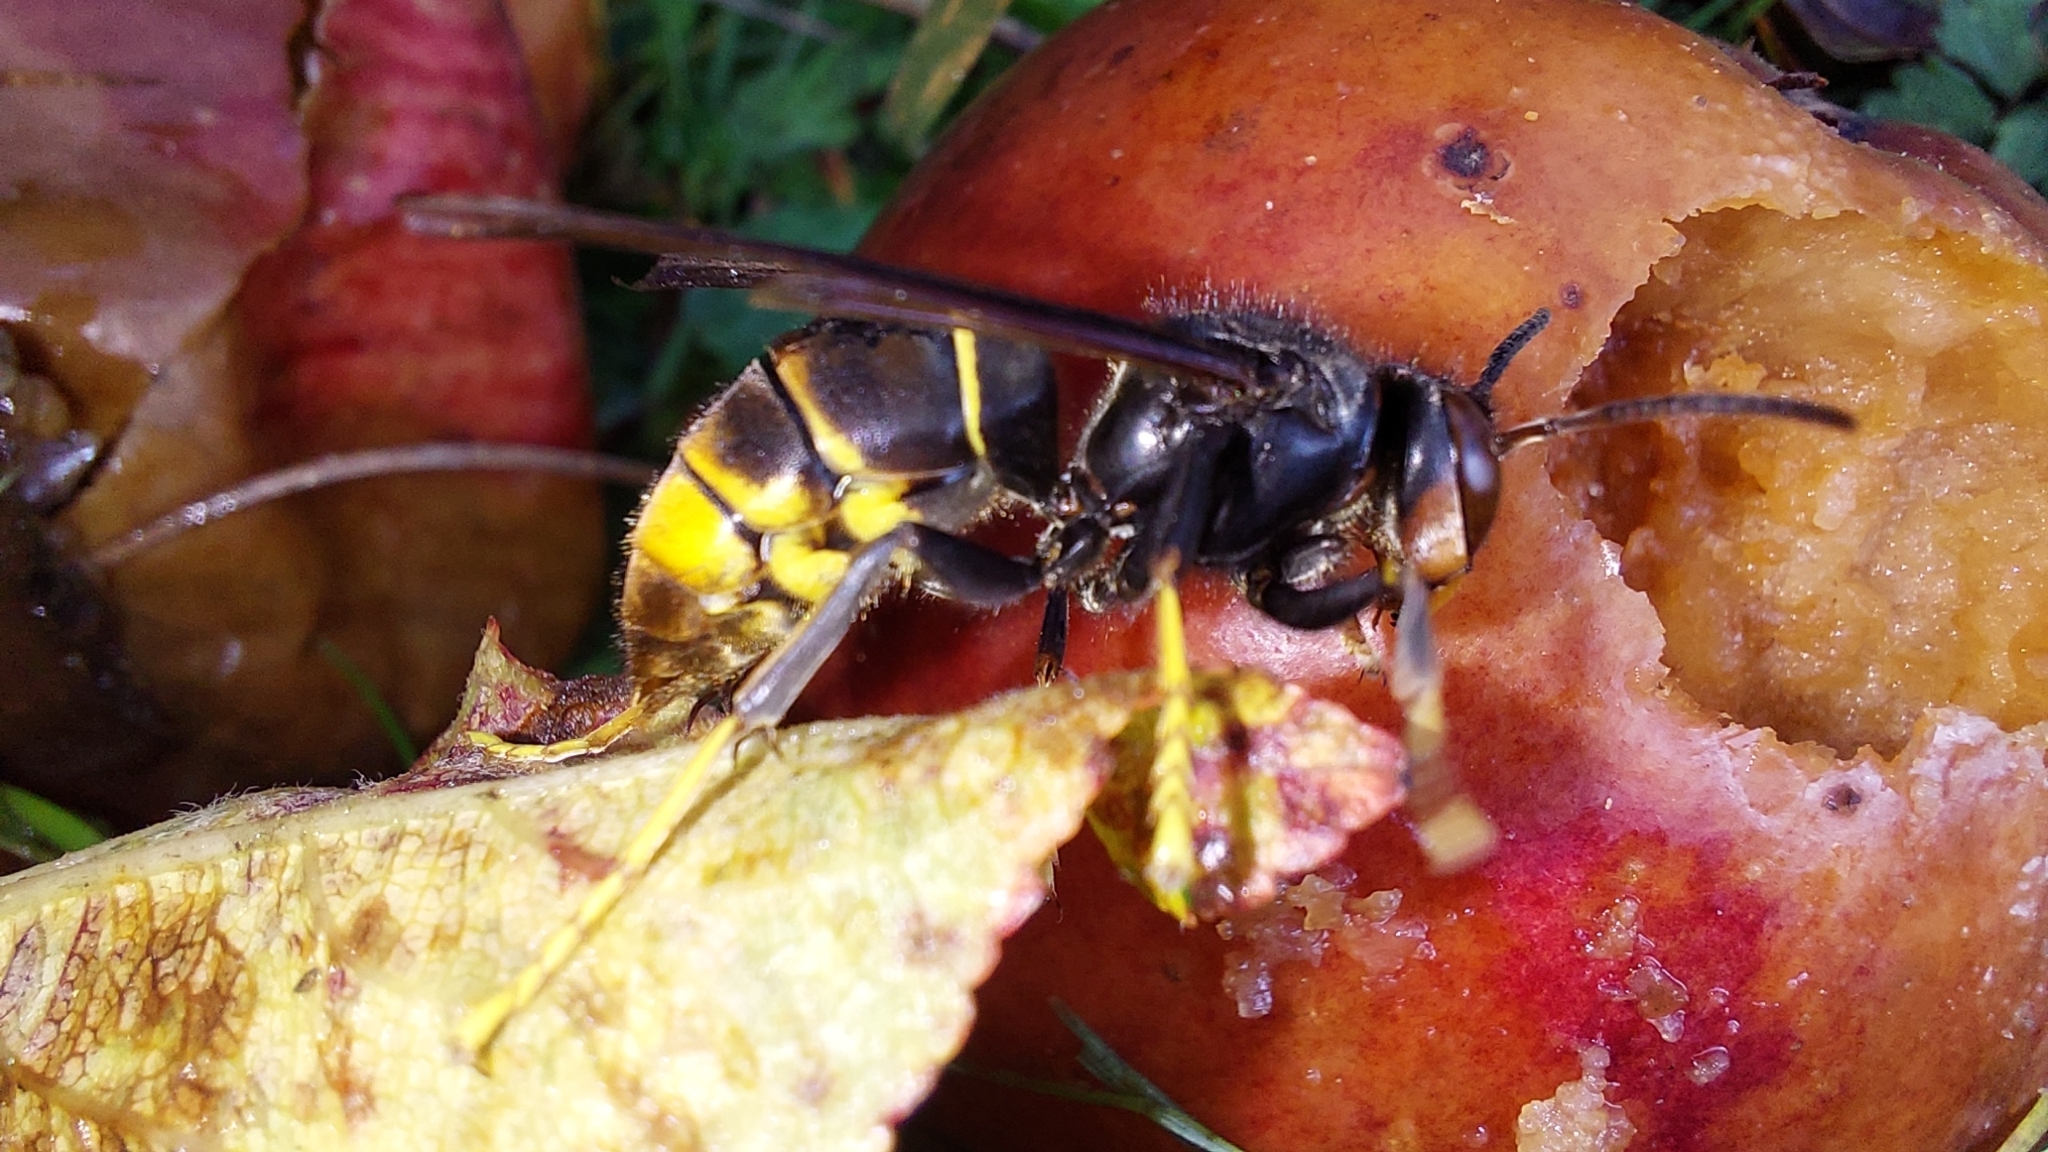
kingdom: Animalia
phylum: Arthropoda
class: Insecta
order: Hymenoptera
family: Vespidae
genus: Vespa
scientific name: Vespa velutina
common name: Asian hornet
